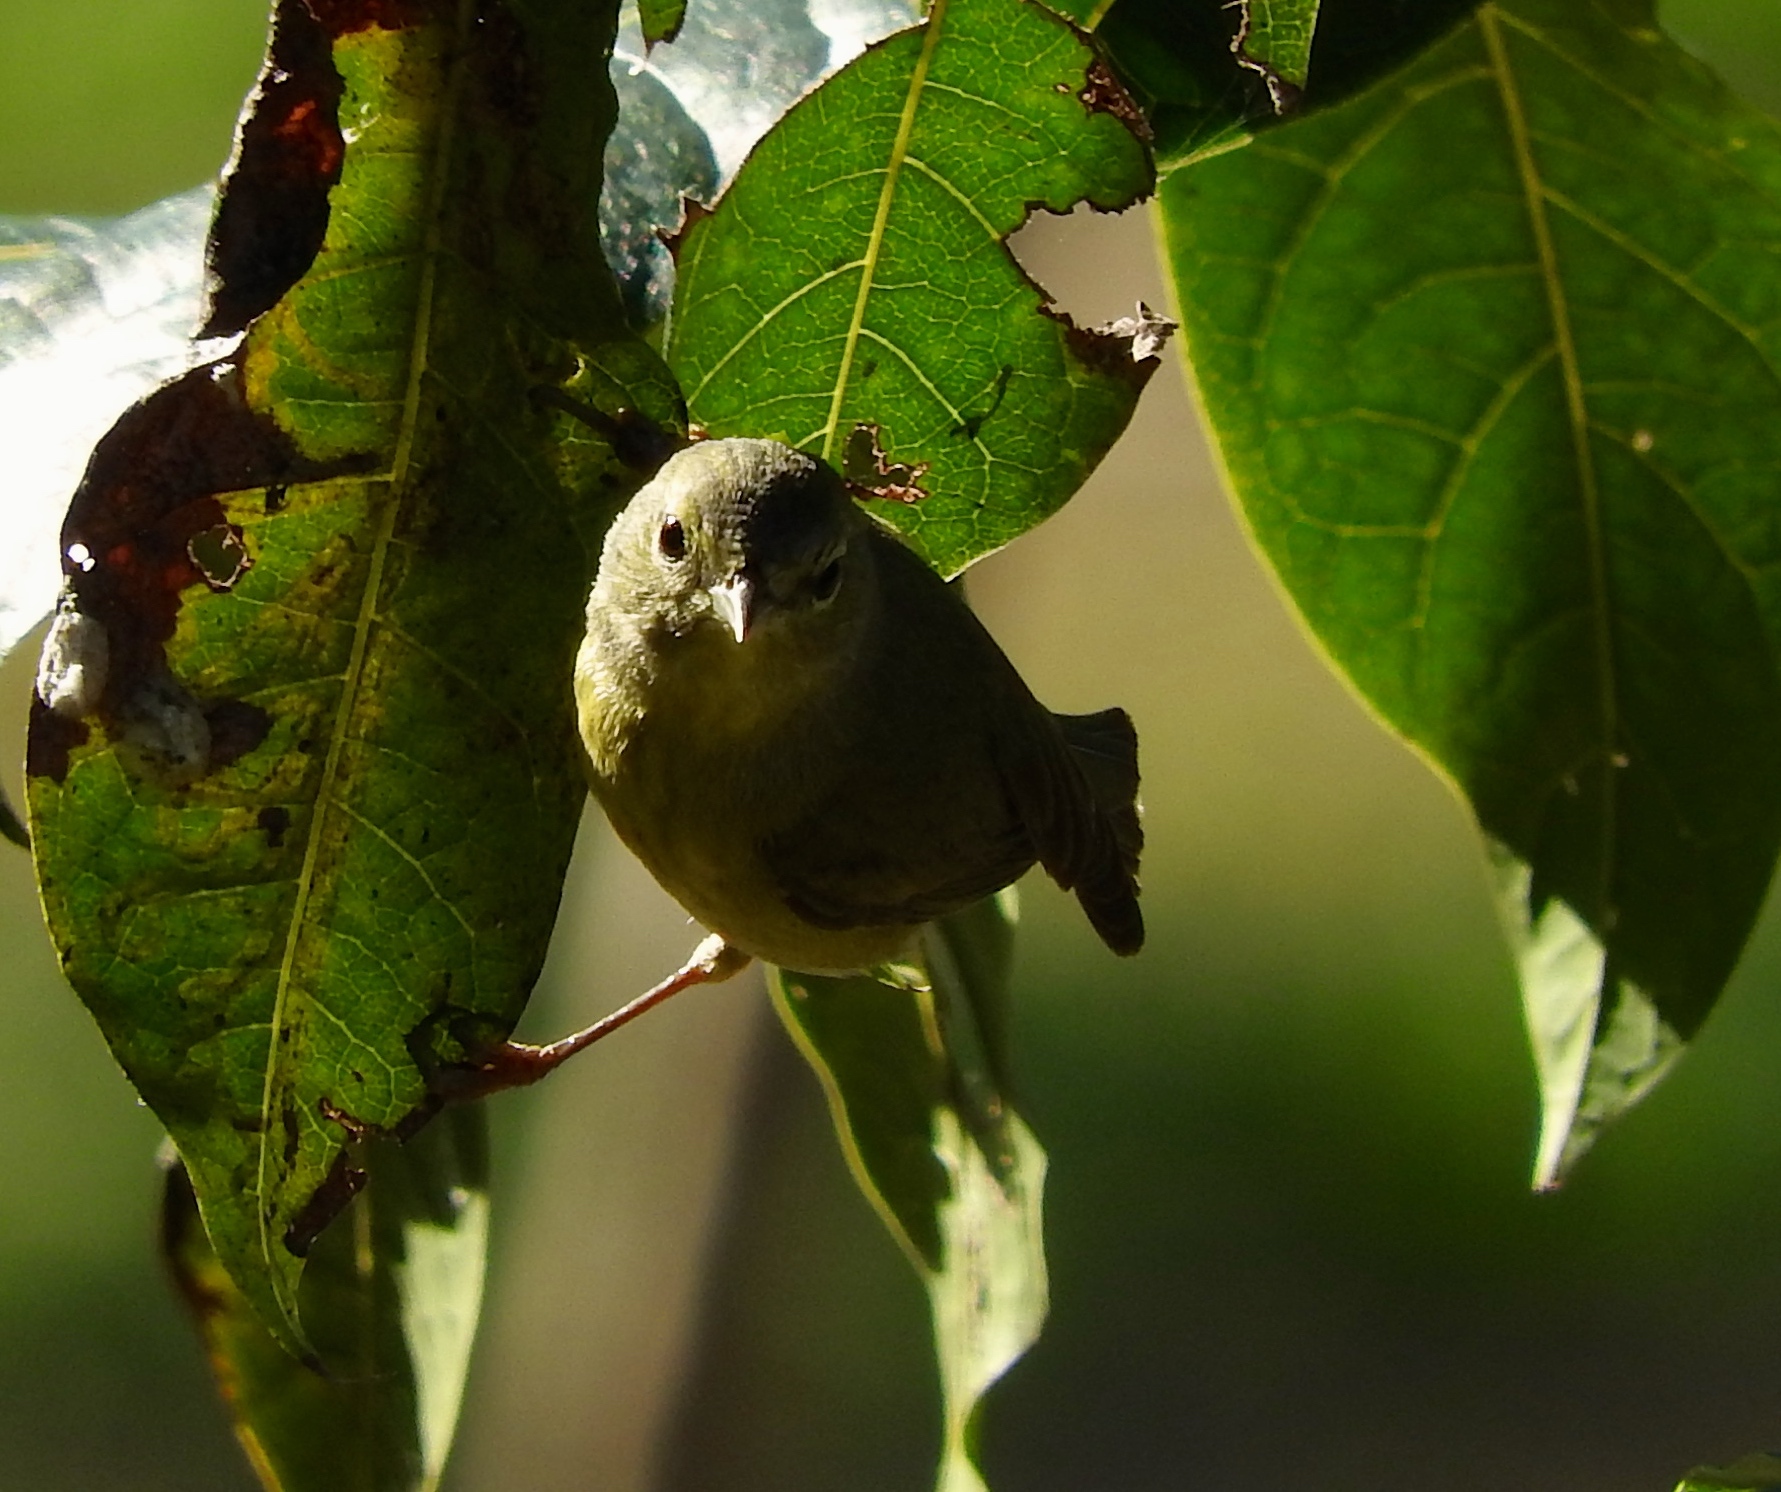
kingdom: Animalia
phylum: Chordata
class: Aves
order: Passeriformes
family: Parulidae
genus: Leiothlypis
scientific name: Leiothlypis celata
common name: Orange-crowned warbler
